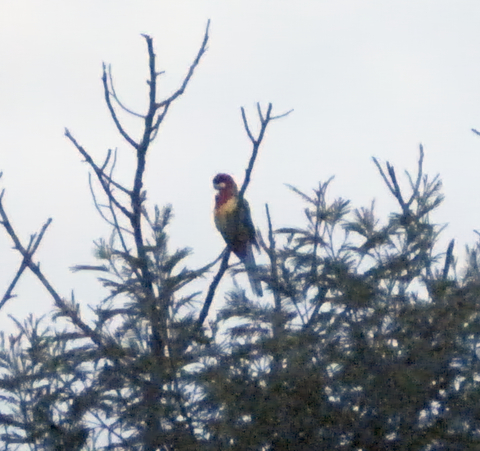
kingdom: Animalia
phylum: Chordata
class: Aves
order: Psittaciformes
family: Psittacidae
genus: Platycercus
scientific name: Platycercus eximius
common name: Eastern rosella
